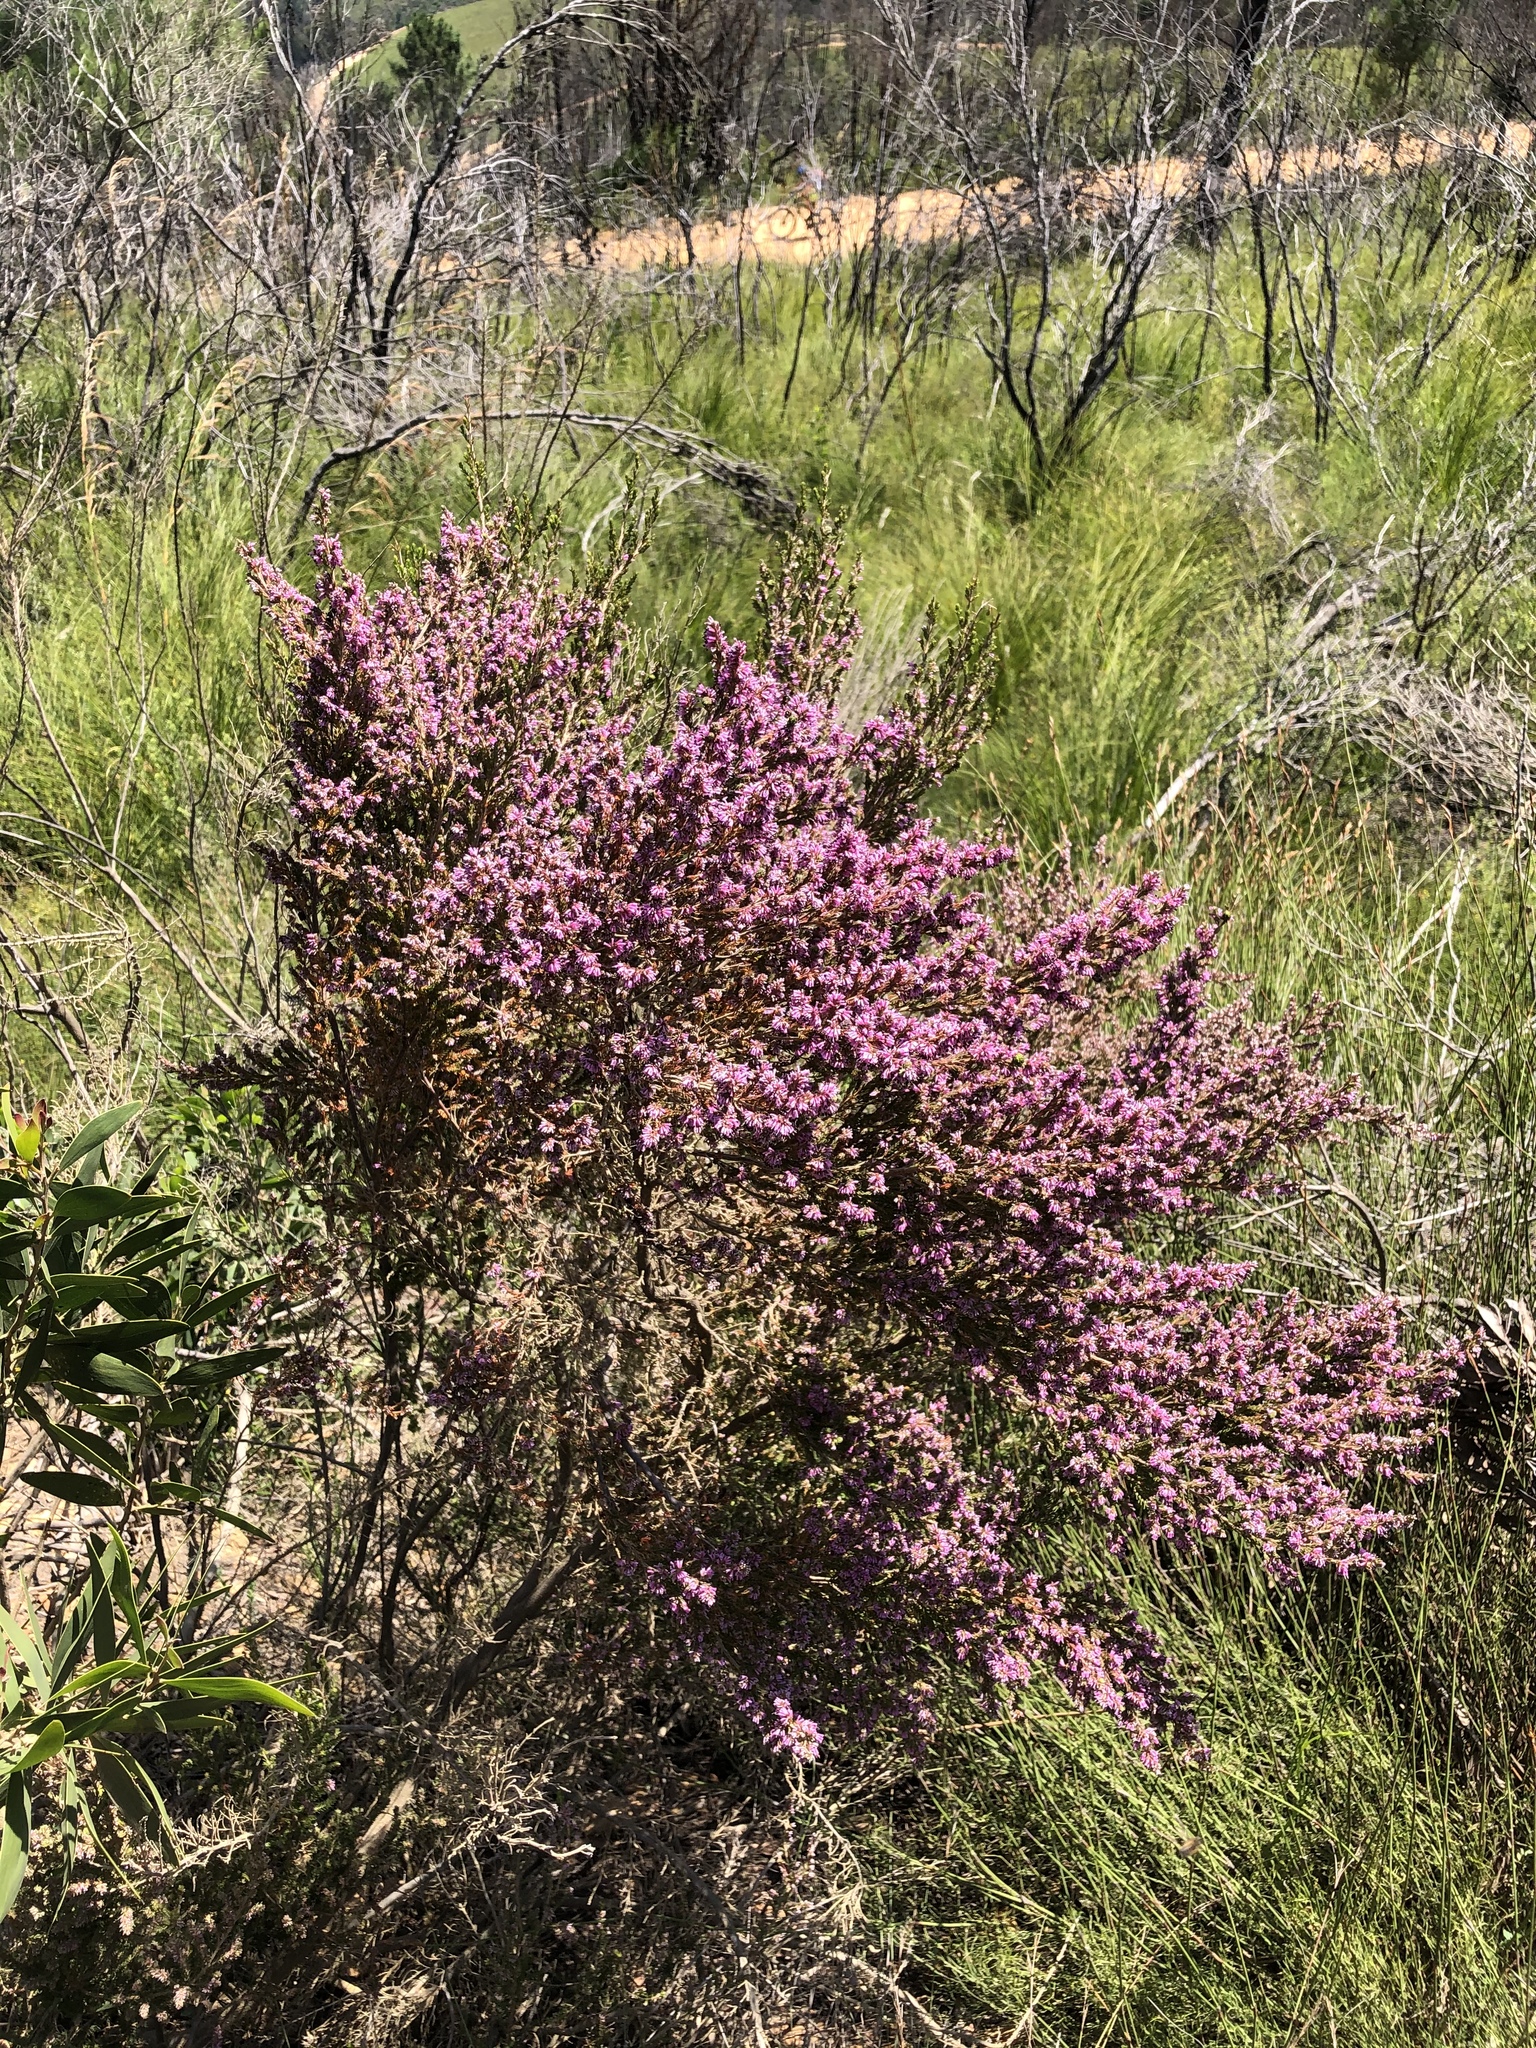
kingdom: Plantae
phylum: Tracheophyta
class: Magnoliopsida
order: Ericales
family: Ericaceae
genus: Erica
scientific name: Erica uberiflora
